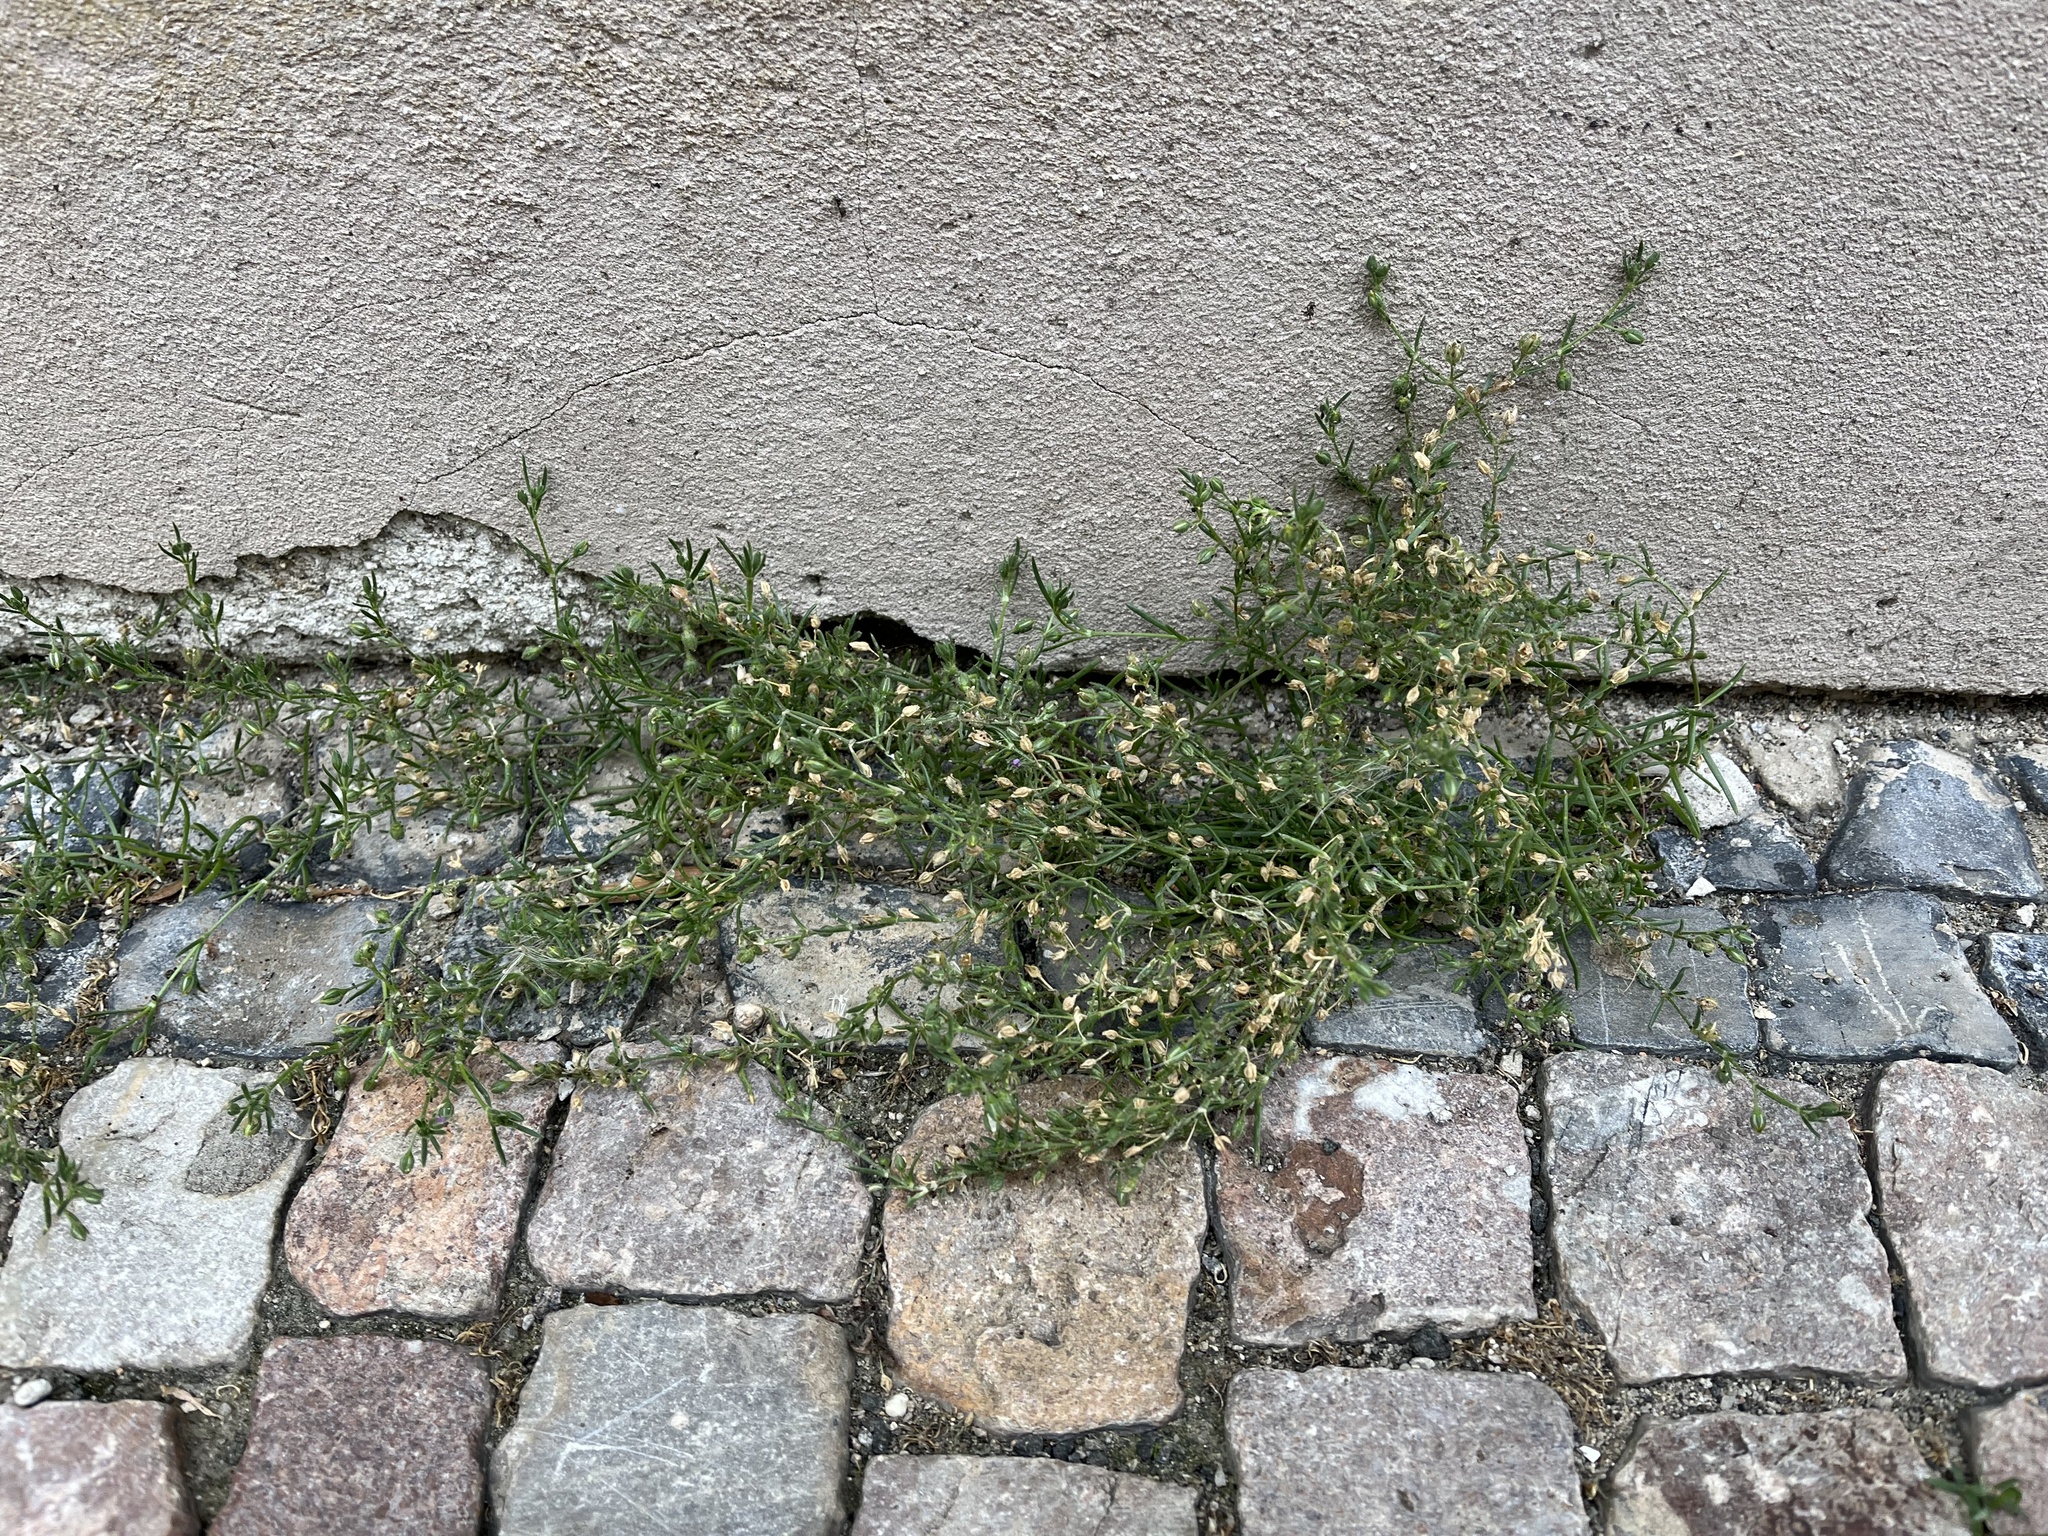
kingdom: Plantae
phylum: Tracheophyta
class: Magnoliopsida
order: Caryophyllales
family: Caryophyllaceae
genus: Spergularia
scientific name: Spergularia marina
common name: Lesser sea-spurrey
